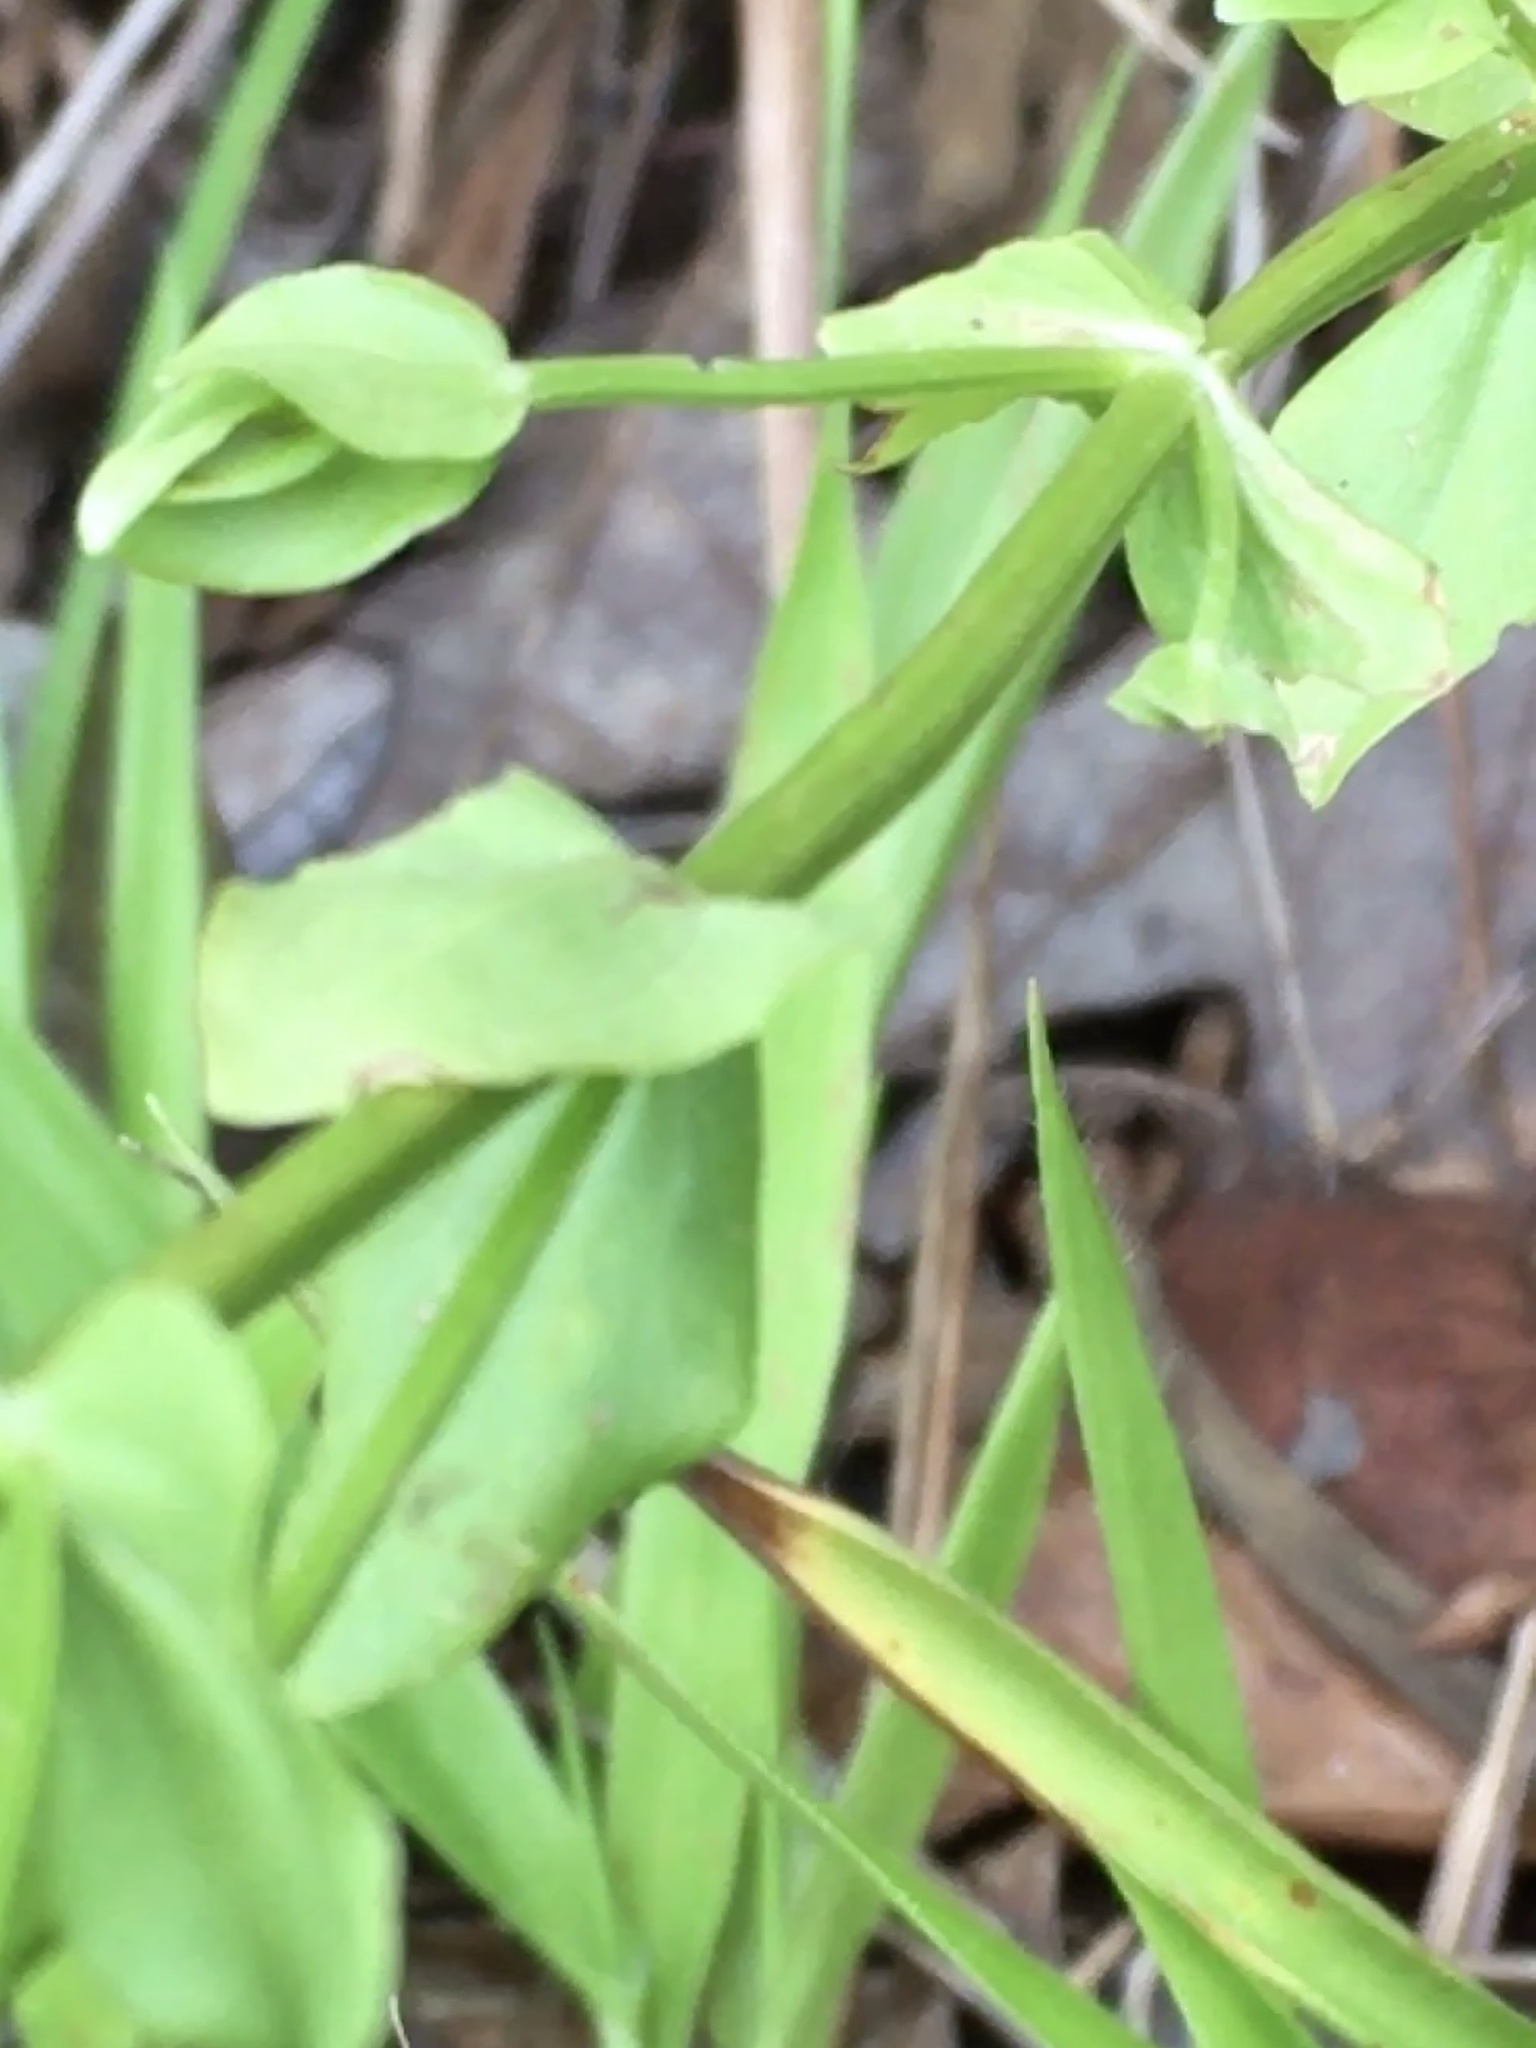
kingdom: Plantae
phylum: Tracheophyta
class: Magnoliopsida
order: Gentianales
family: Gentianaceae
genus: Sabatia
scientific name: Sabatia angularis
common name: Rose-pink
